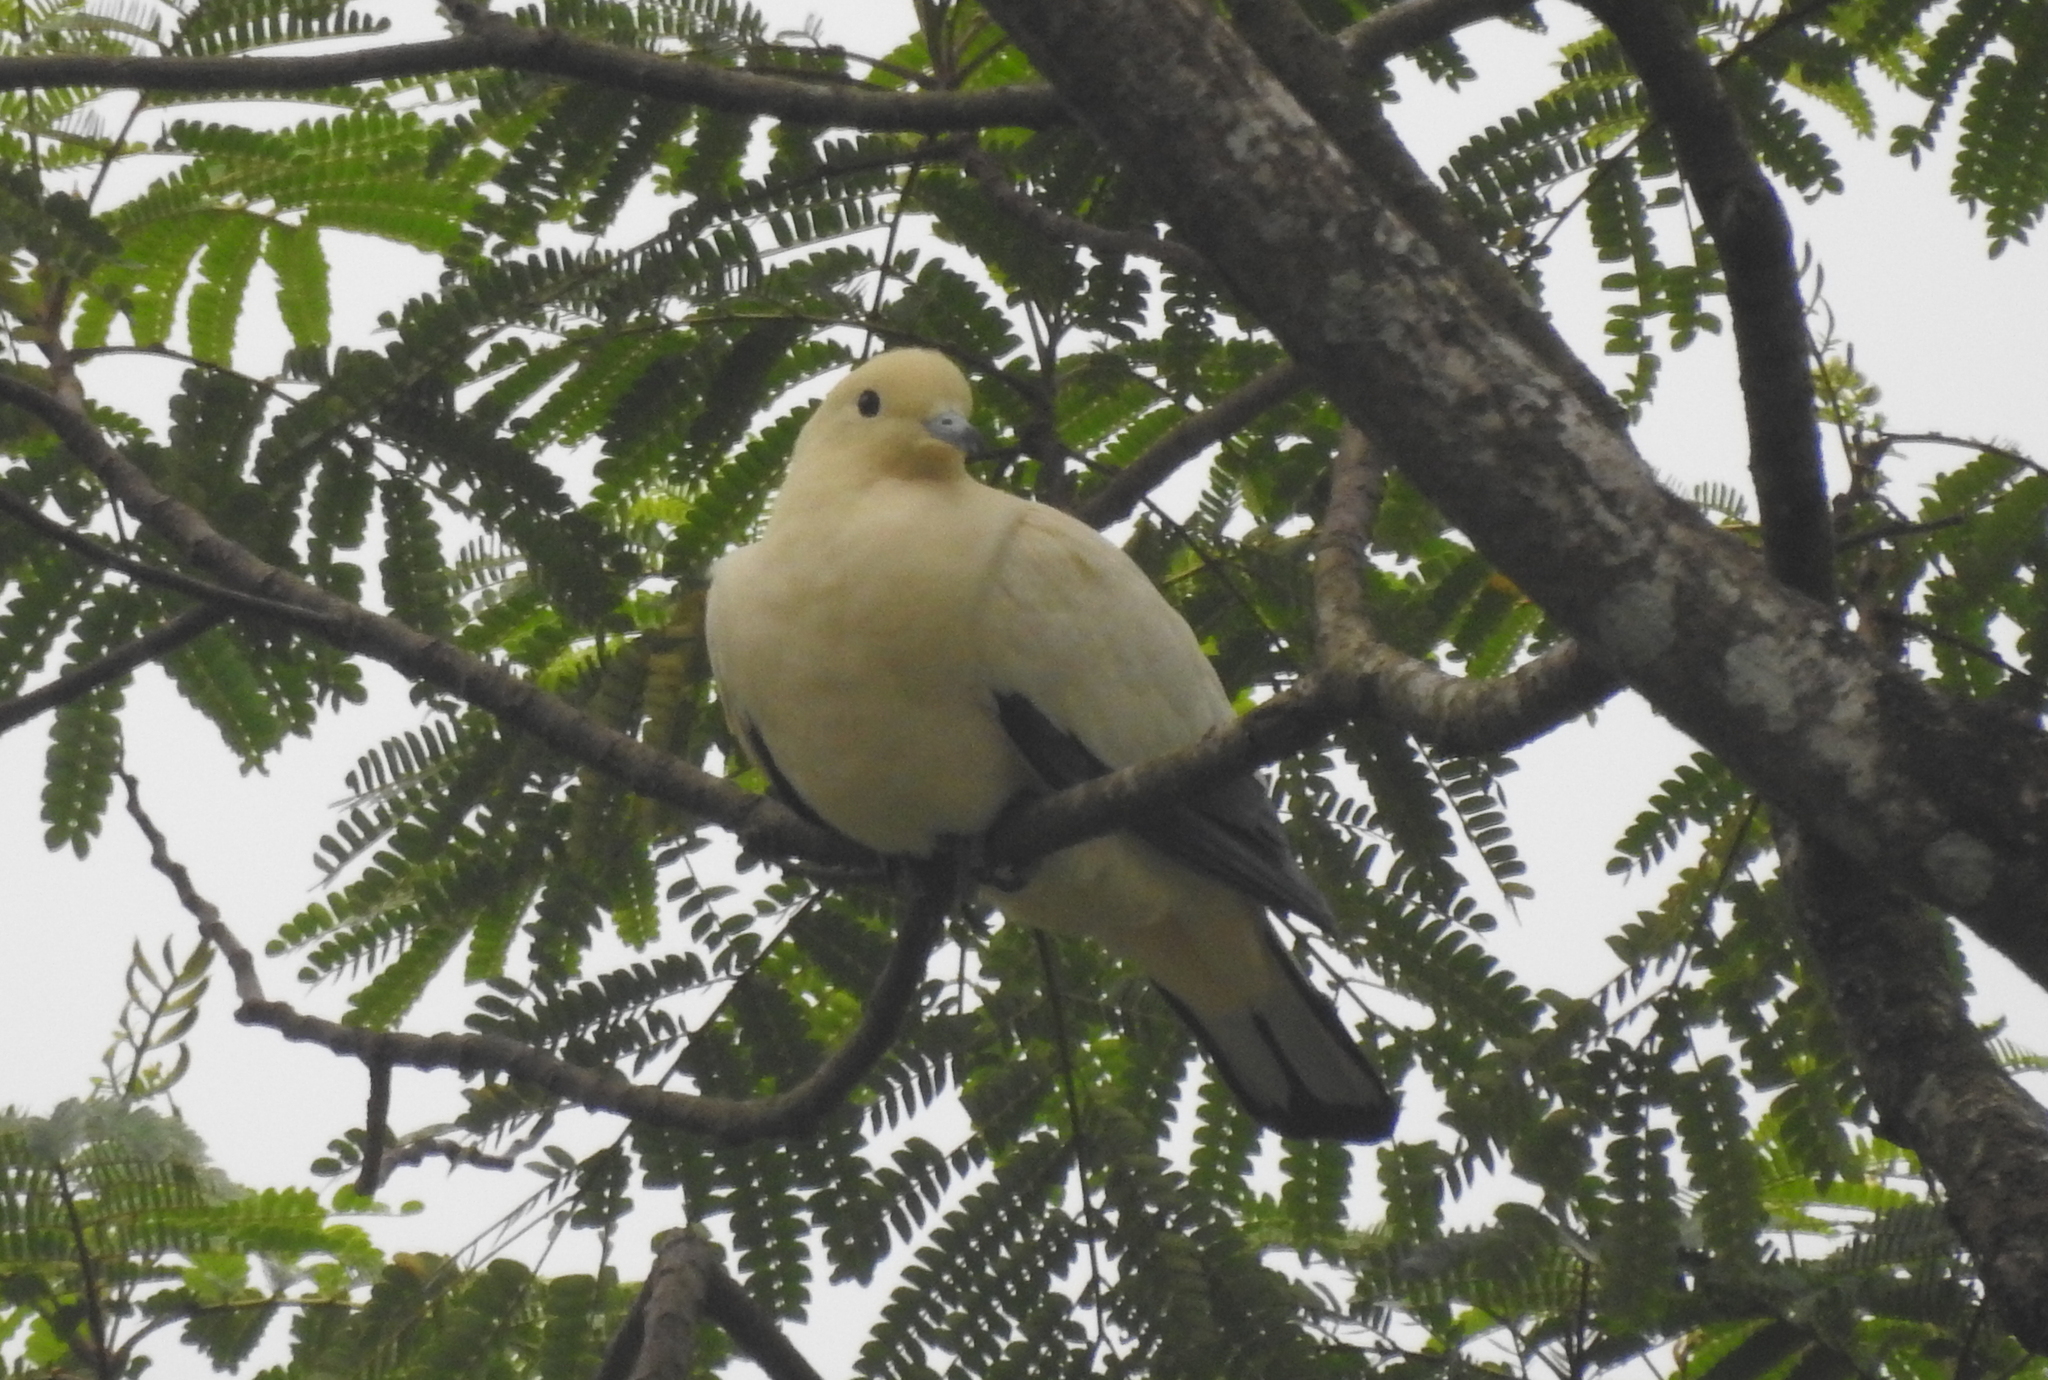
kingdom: Animalia
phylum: Chordata
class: Aves
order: Columbiformes
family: Columbidae
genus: Ducula
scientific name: Ducula bicolor
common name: Pied imperial pigeon
